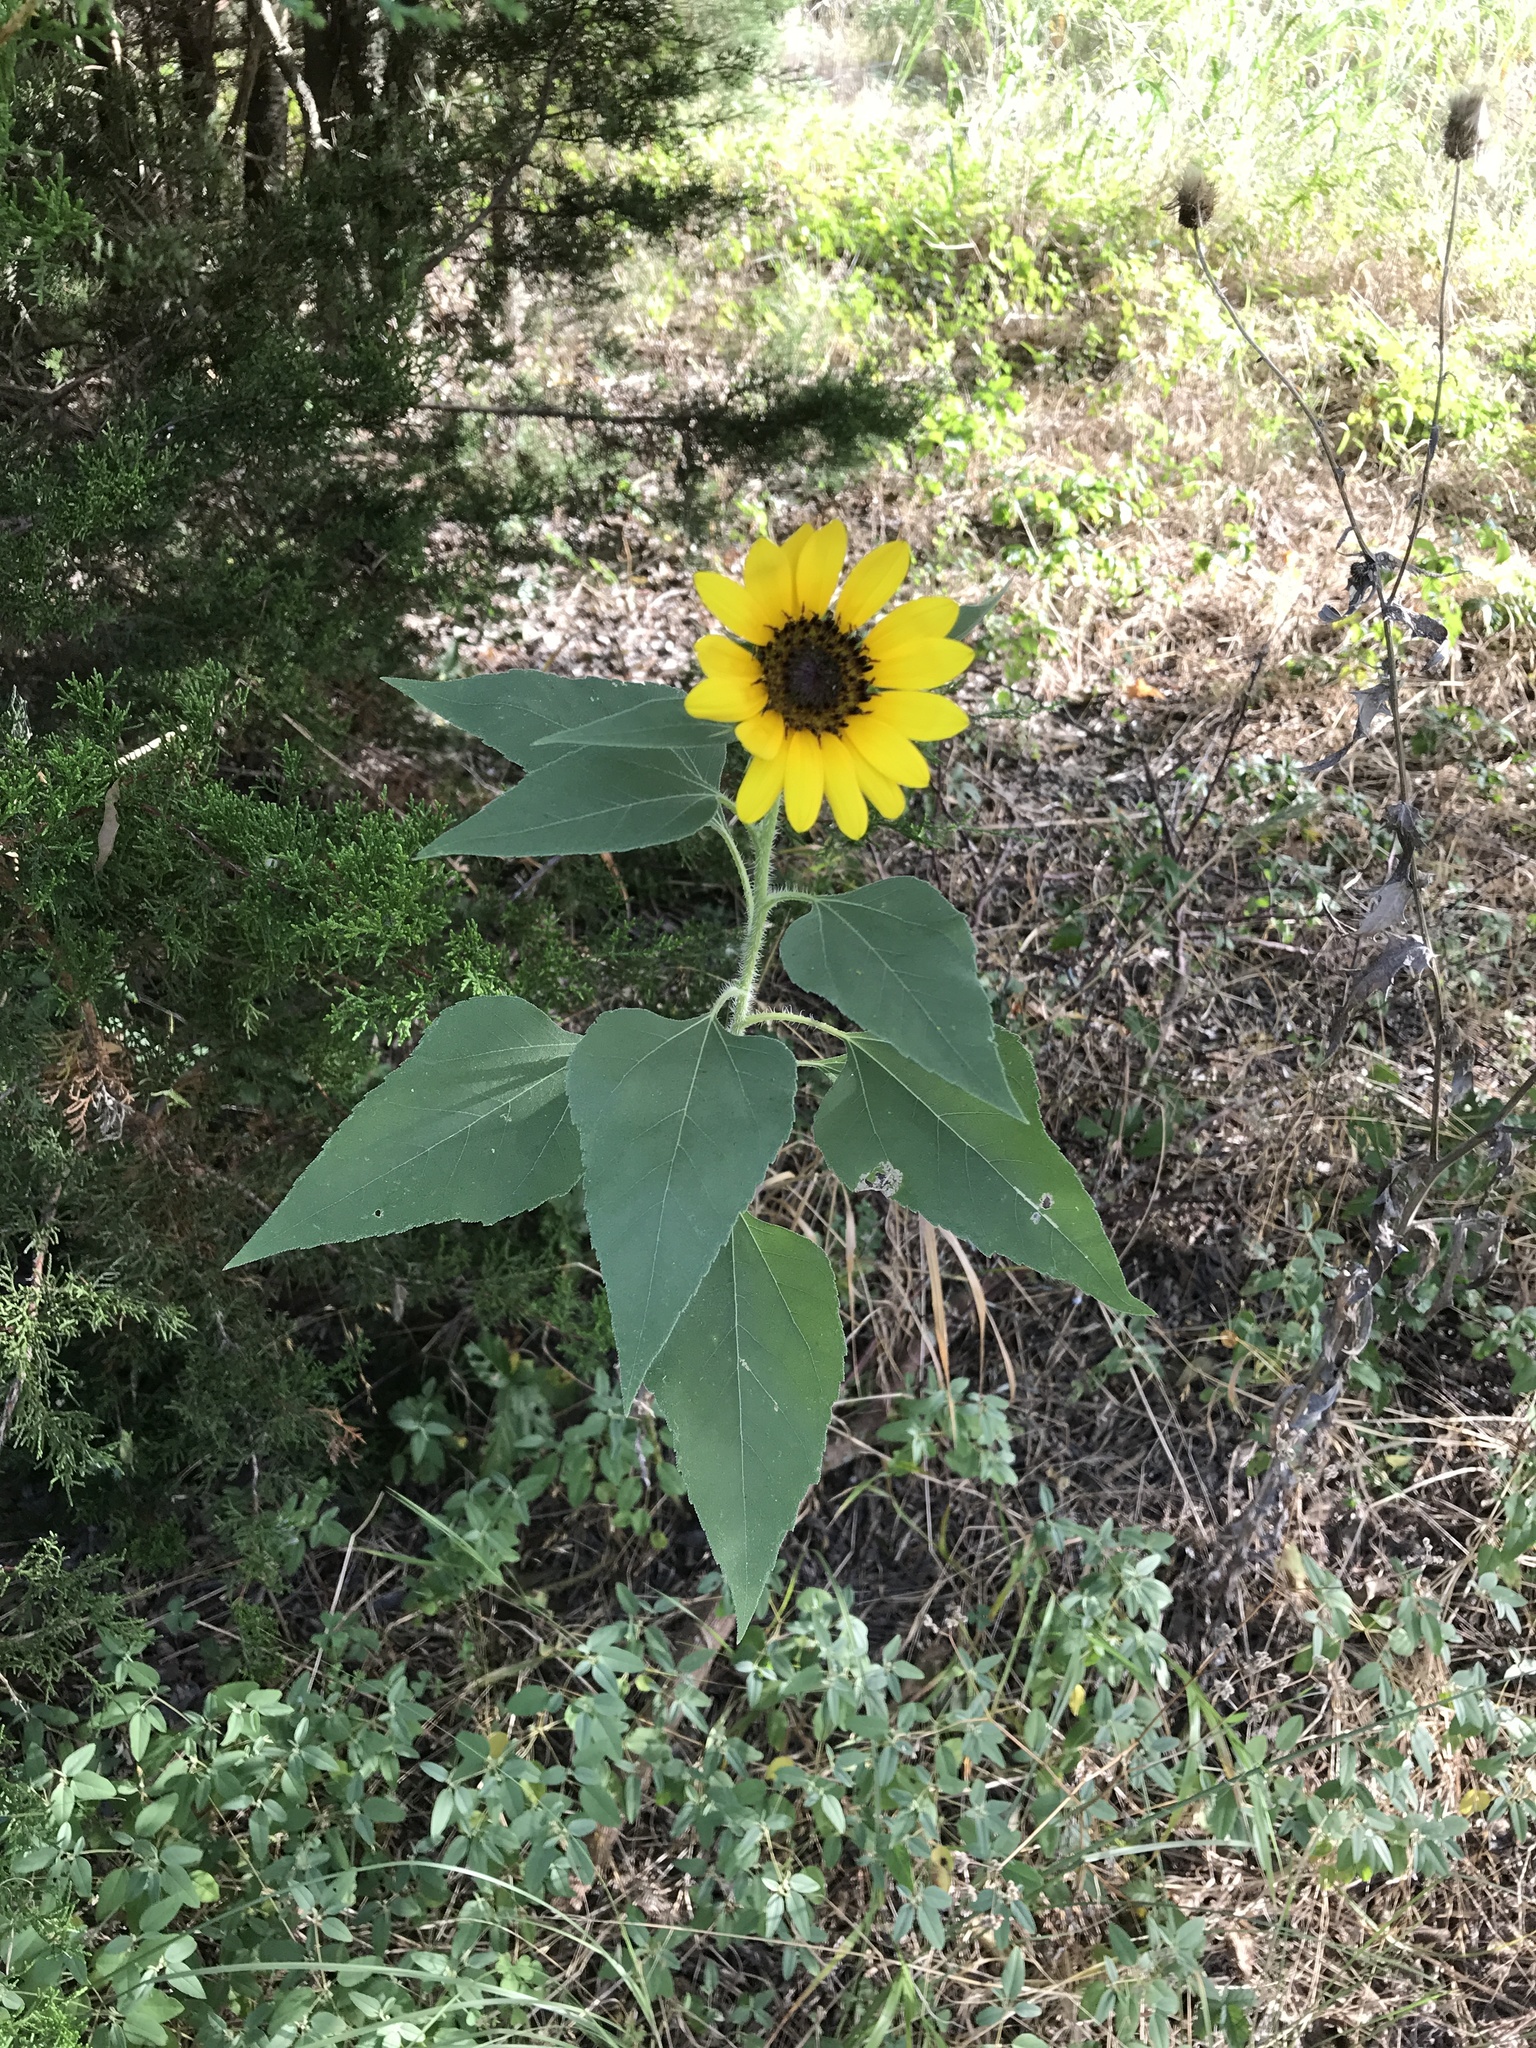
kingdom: Plantae
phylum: Tracheophyta
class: Magnoliopsida
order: Asterales
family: Asteraceae
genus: Helianthus
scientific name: Helianthus annuus
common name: Sunflower
